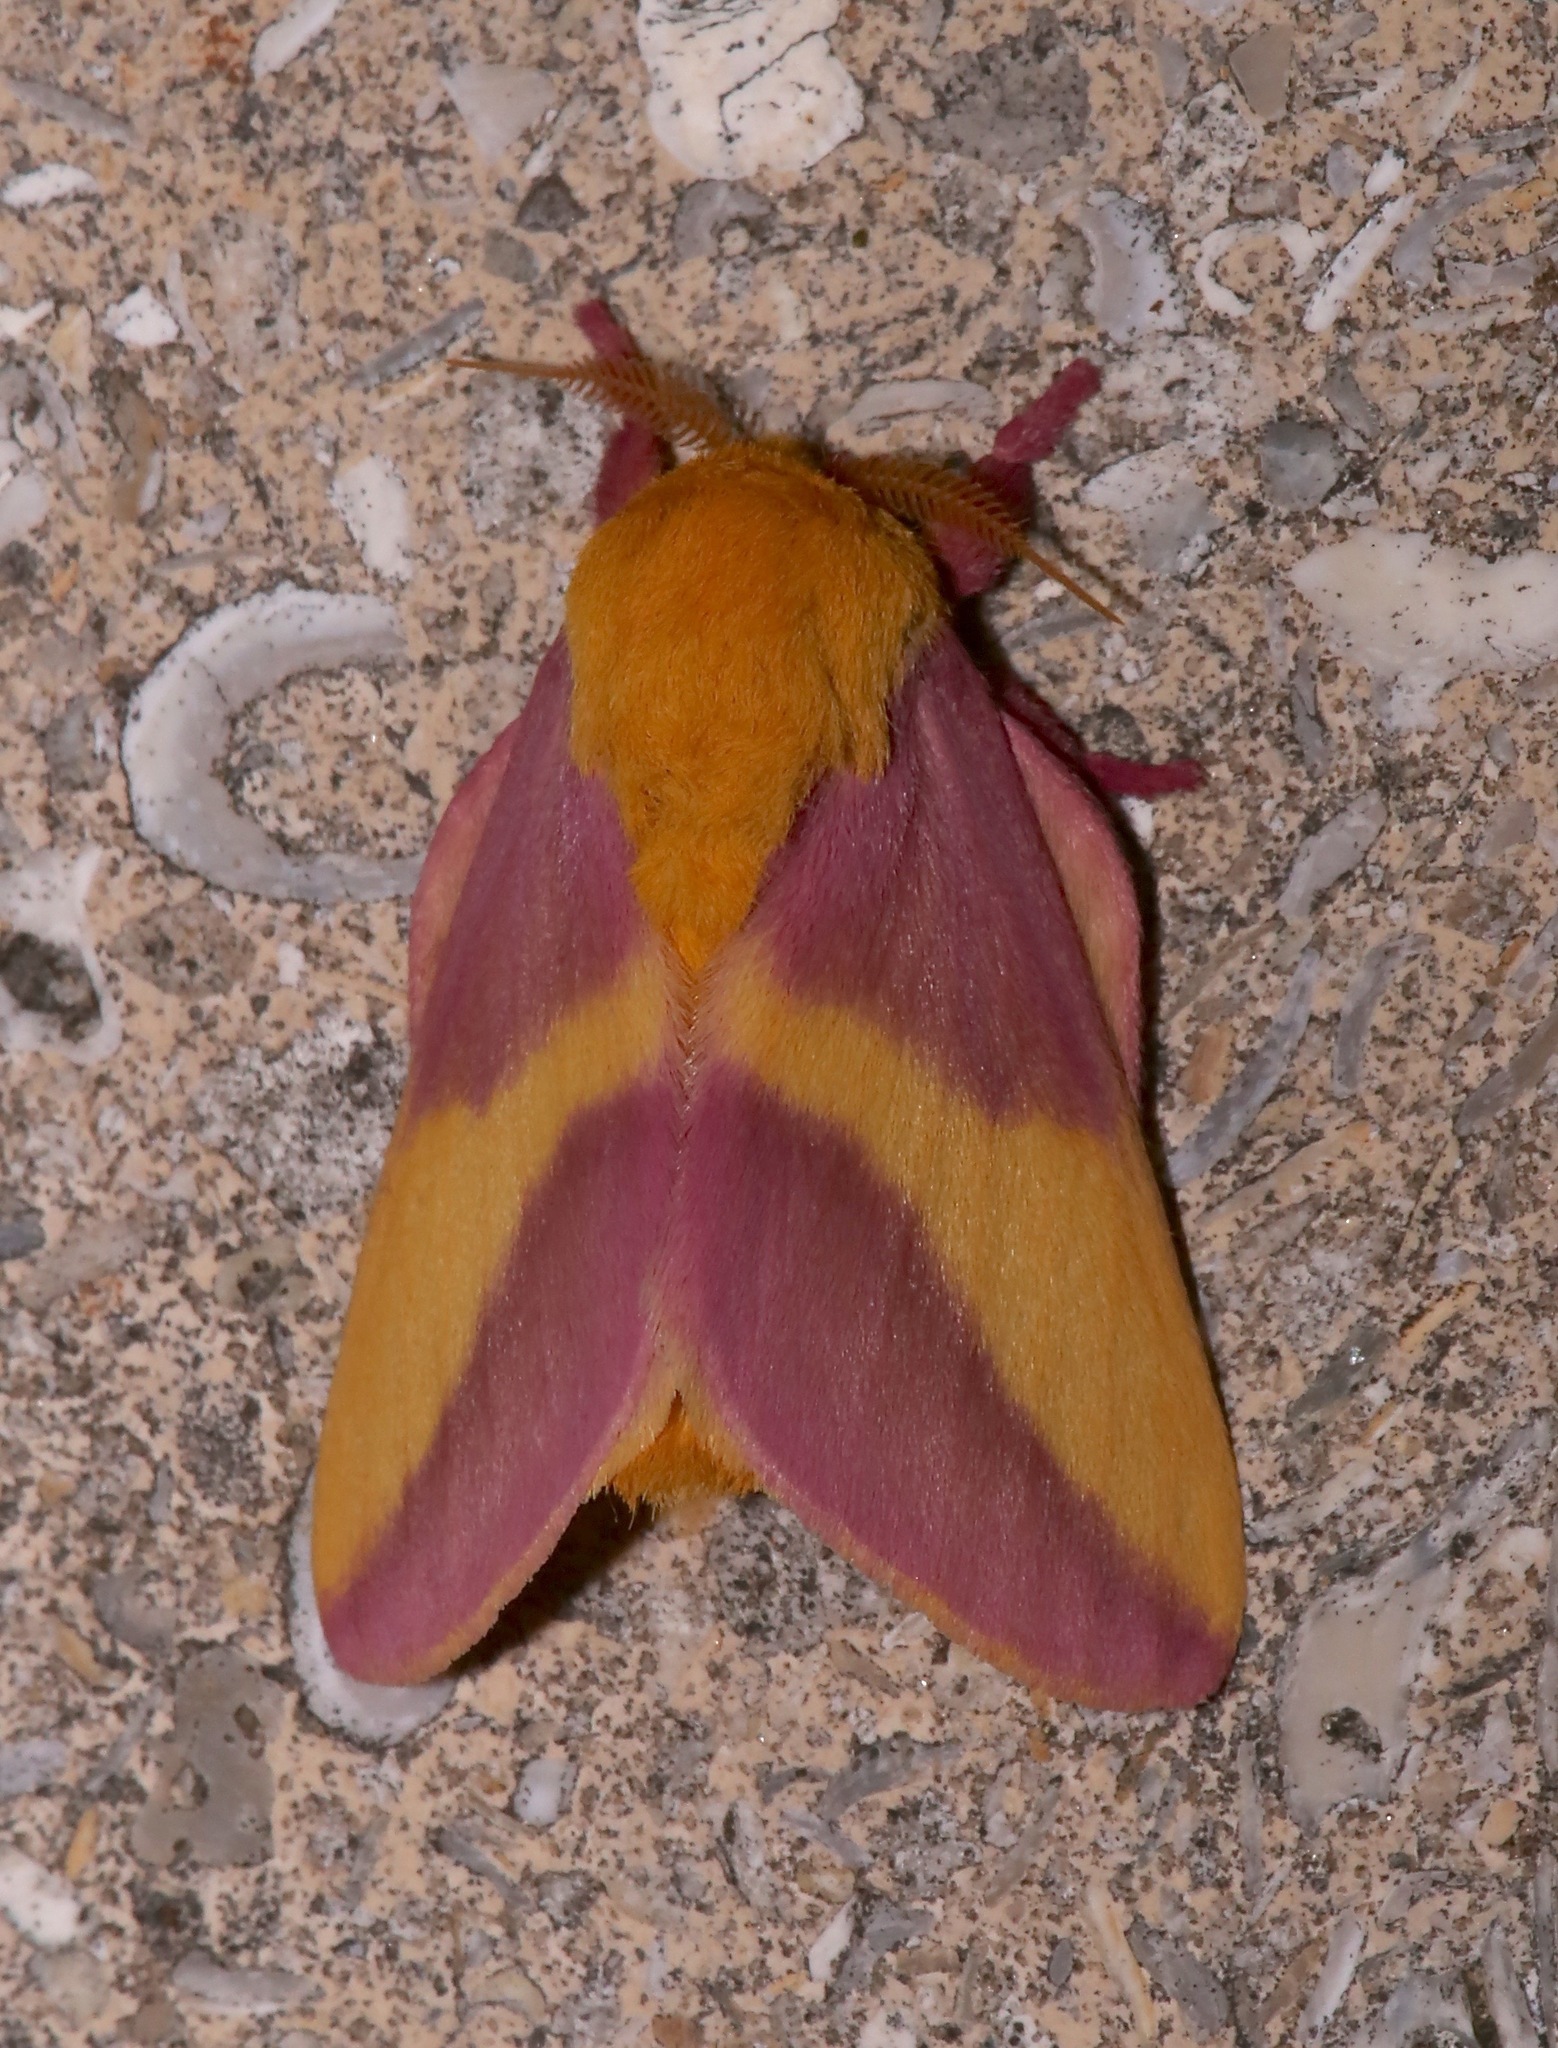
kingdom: Animalia
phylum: Arthropoda
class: Insecta
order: Lepidoptera
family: Saturniidae
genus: Dryocampa
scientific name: Dryocampa rubicunda
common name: Rosy maple moth
